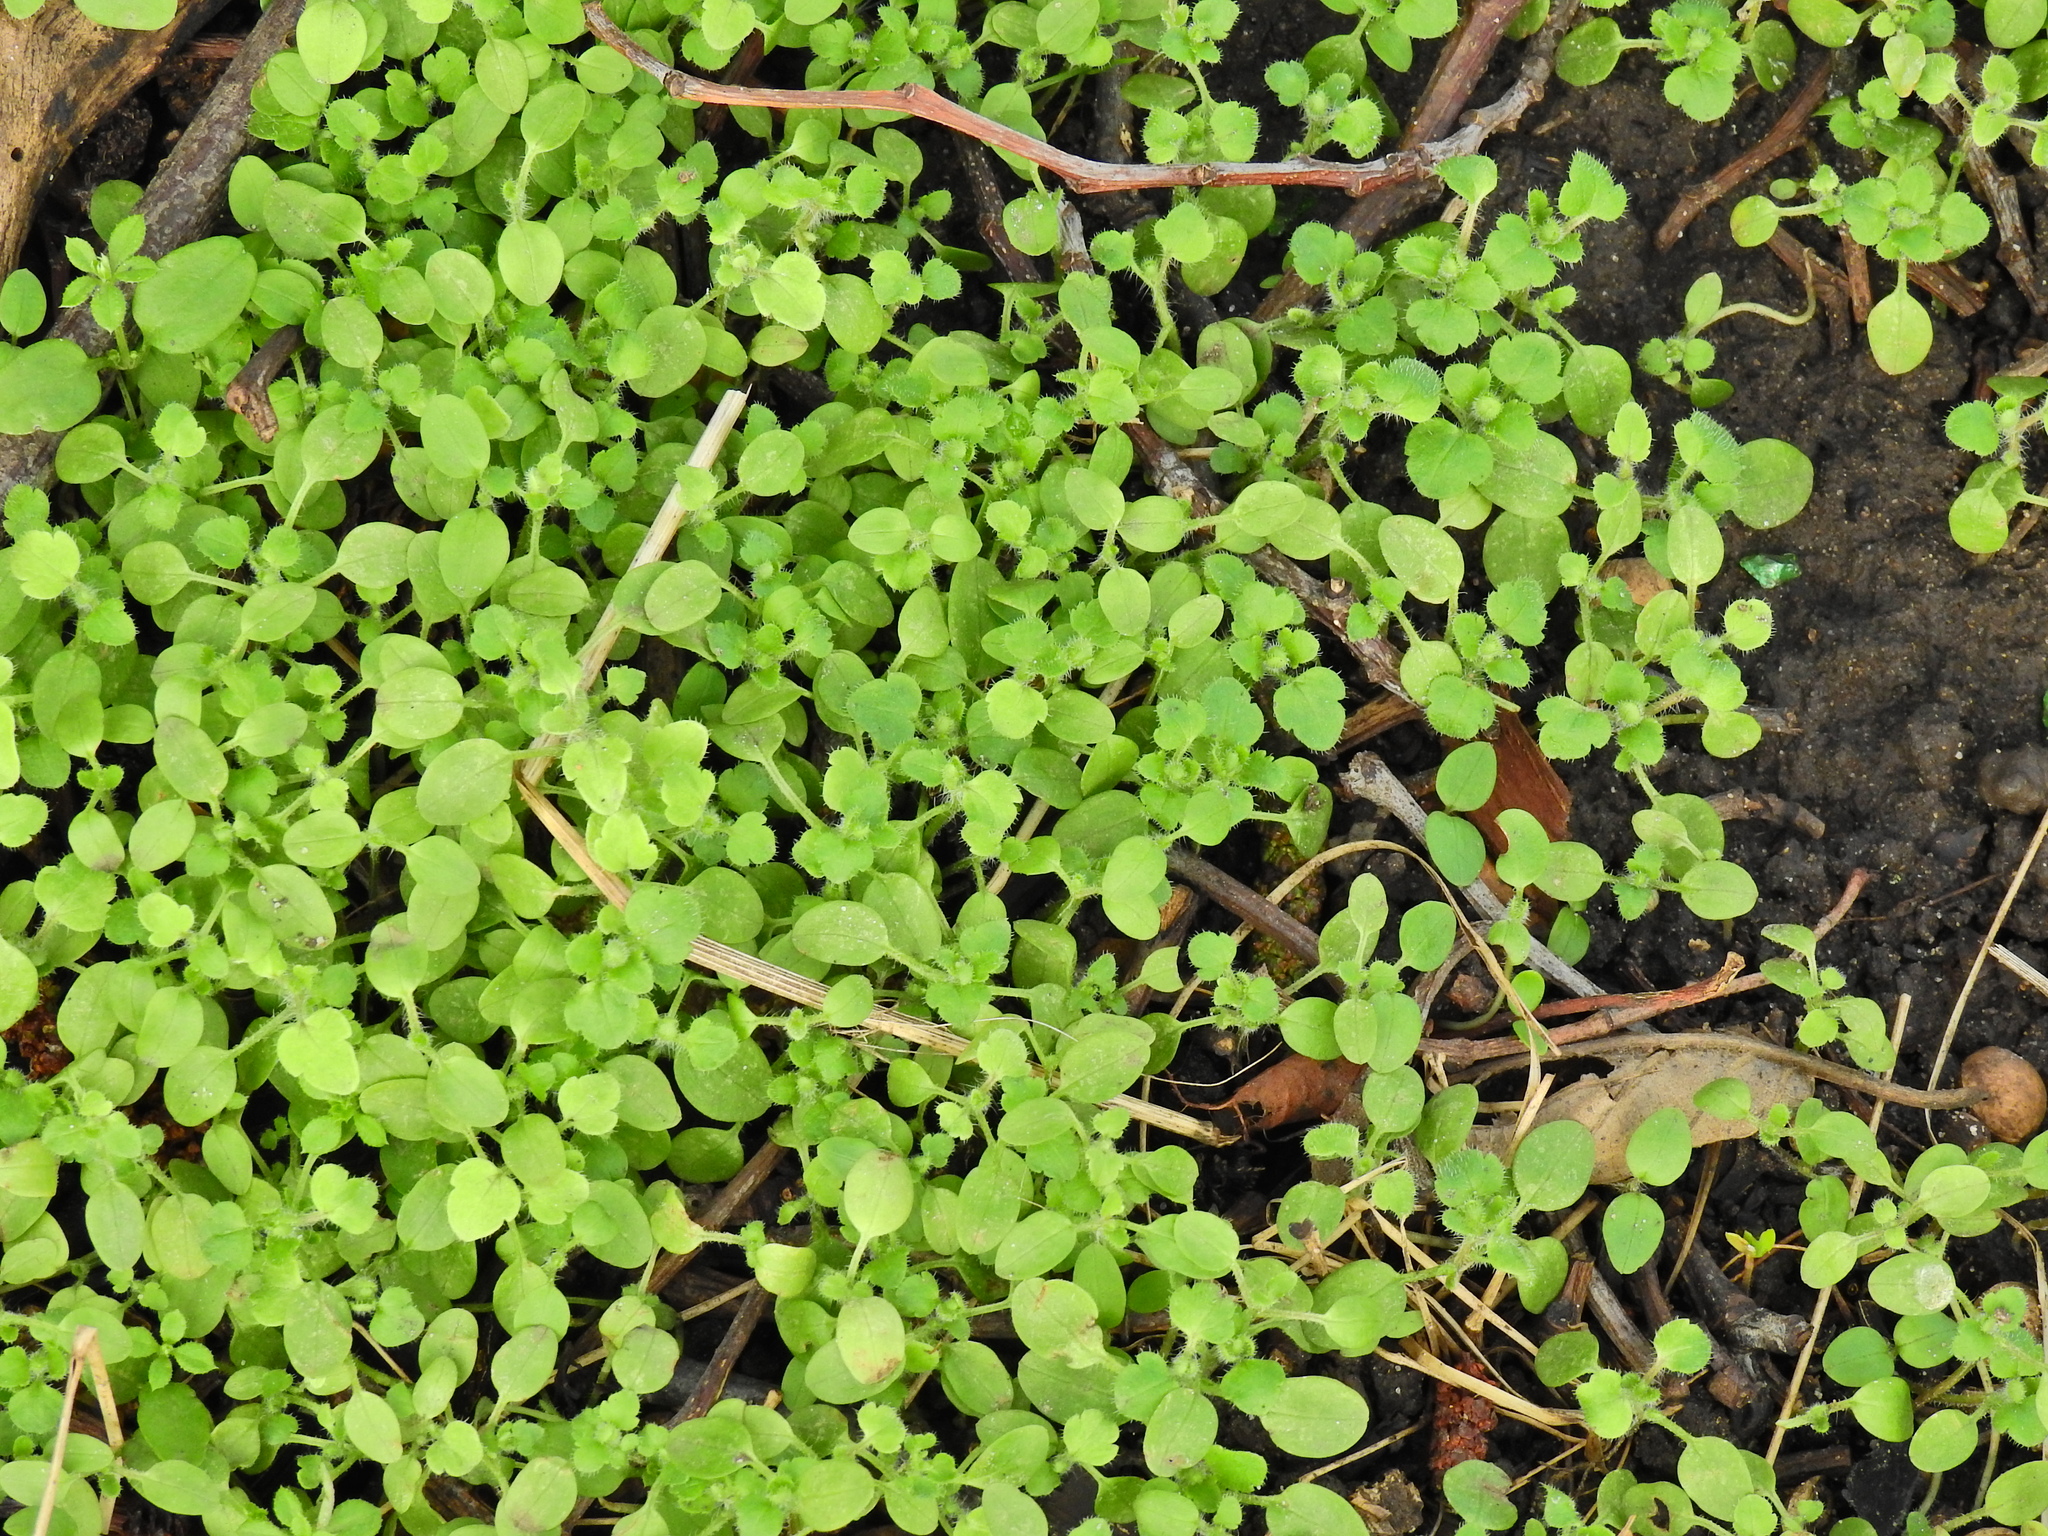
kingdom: Plantae
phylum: Tracheophyta
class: Magnoliopsida
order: Lamiales
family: Plantaginaceae
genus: Veronica
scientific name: Veronica
